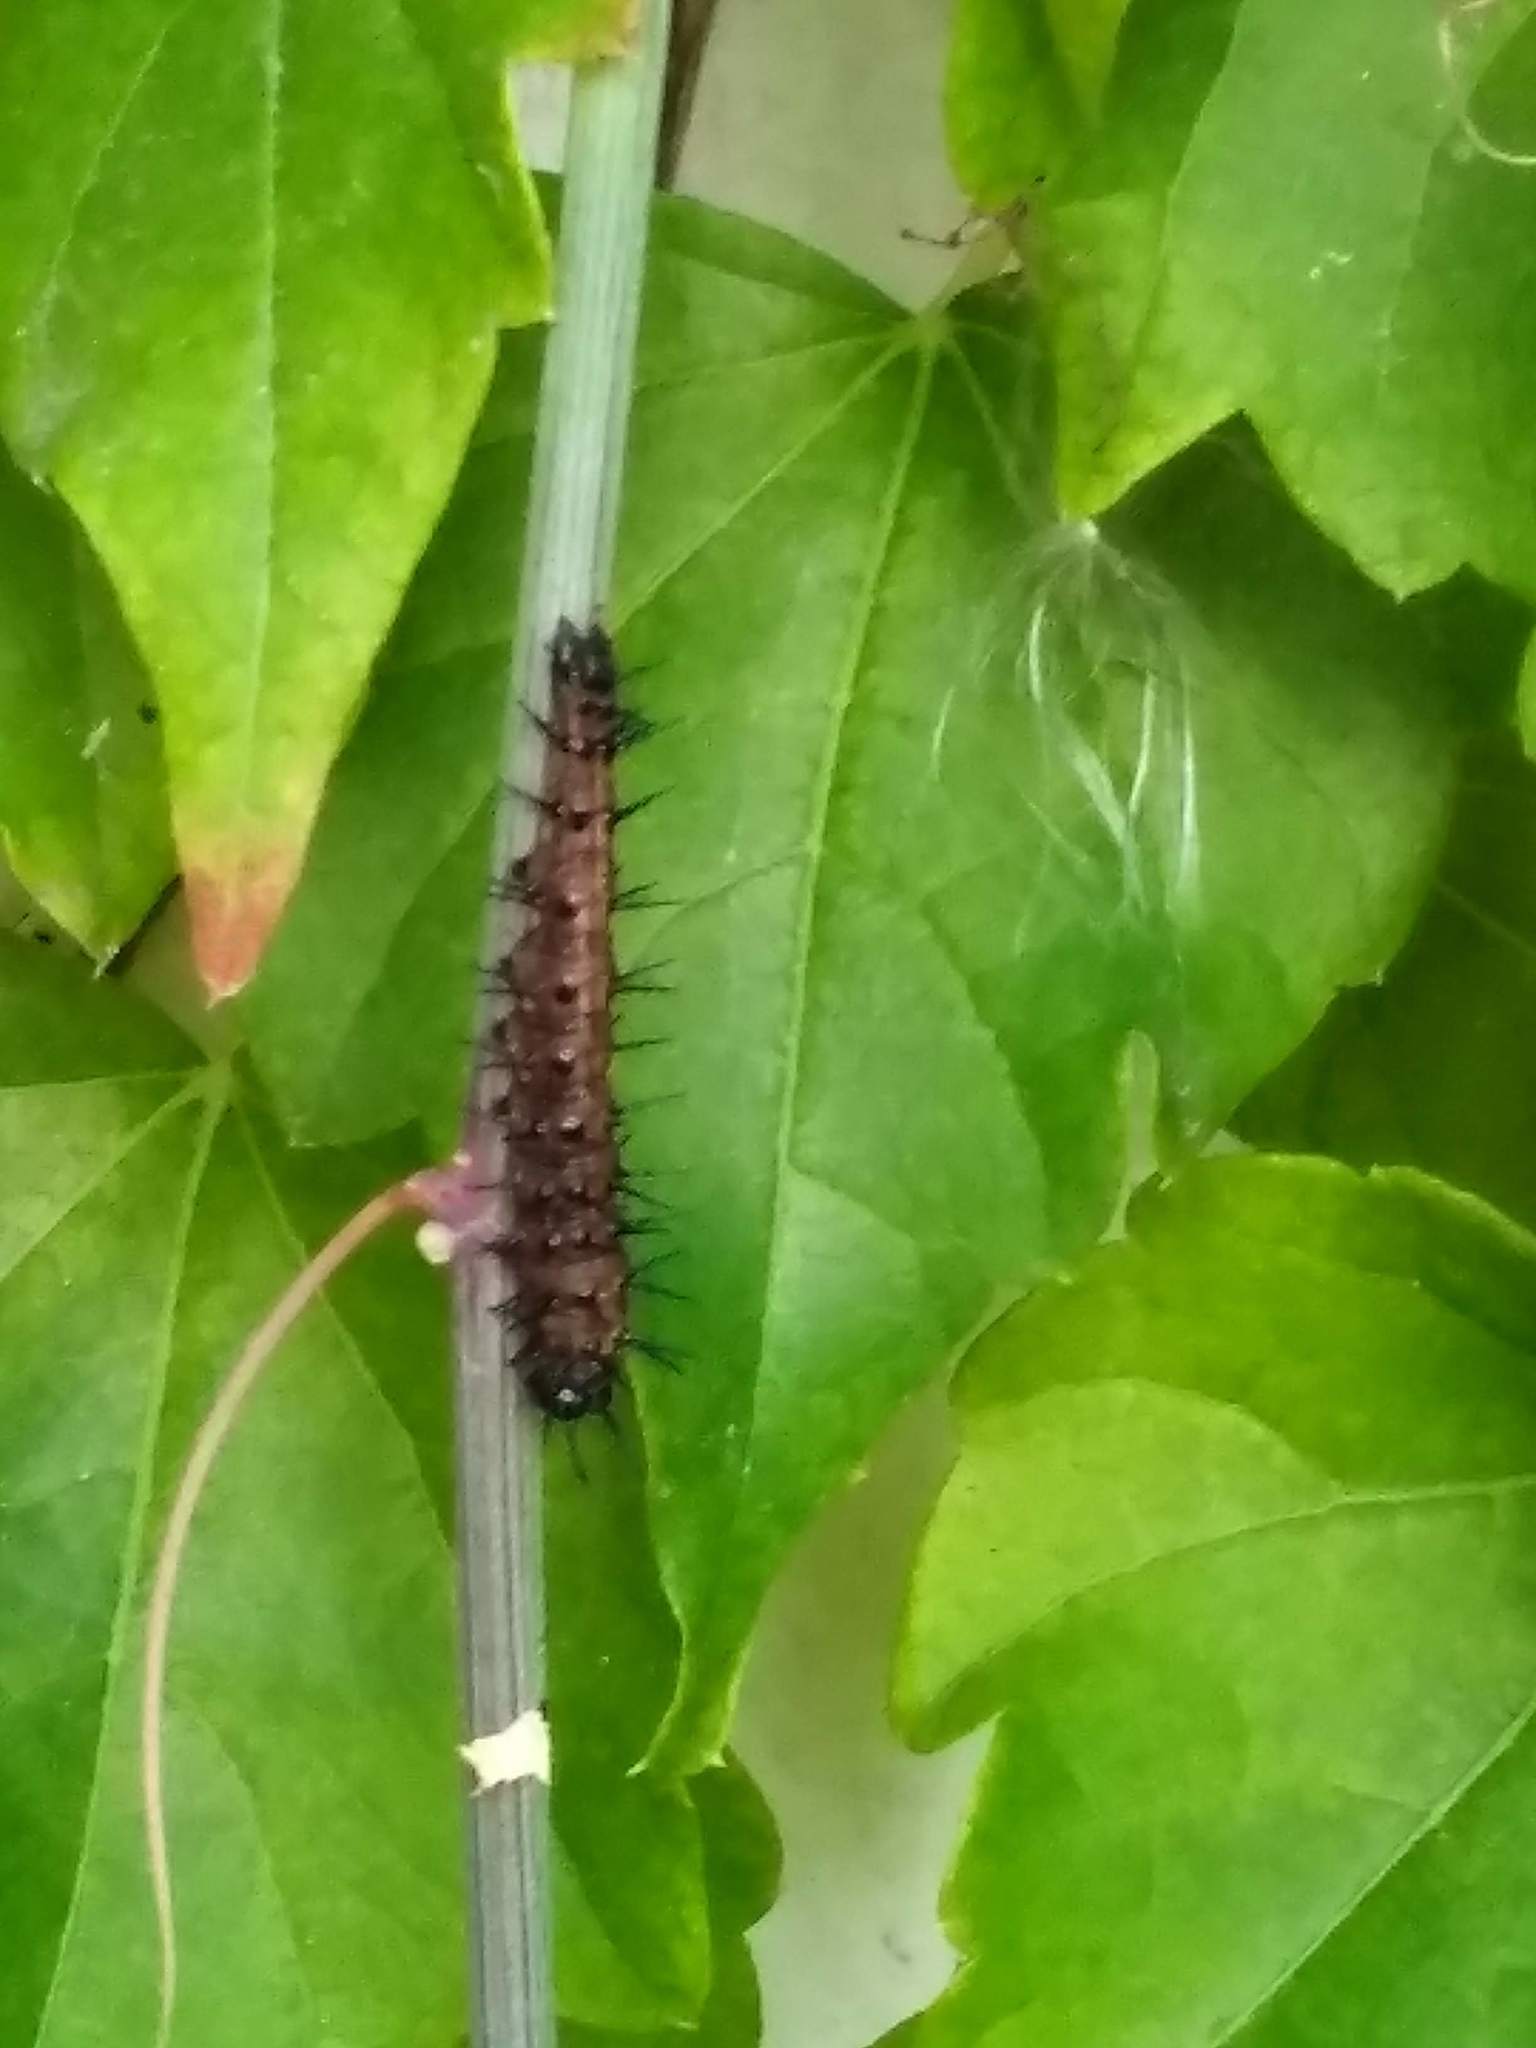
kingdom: Animalia
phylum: Arthropoda
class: Insecta
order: Lepidoptera
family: Nymphalidae
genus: Dione
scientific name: Dione vanillae
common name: Gulf fritillary
